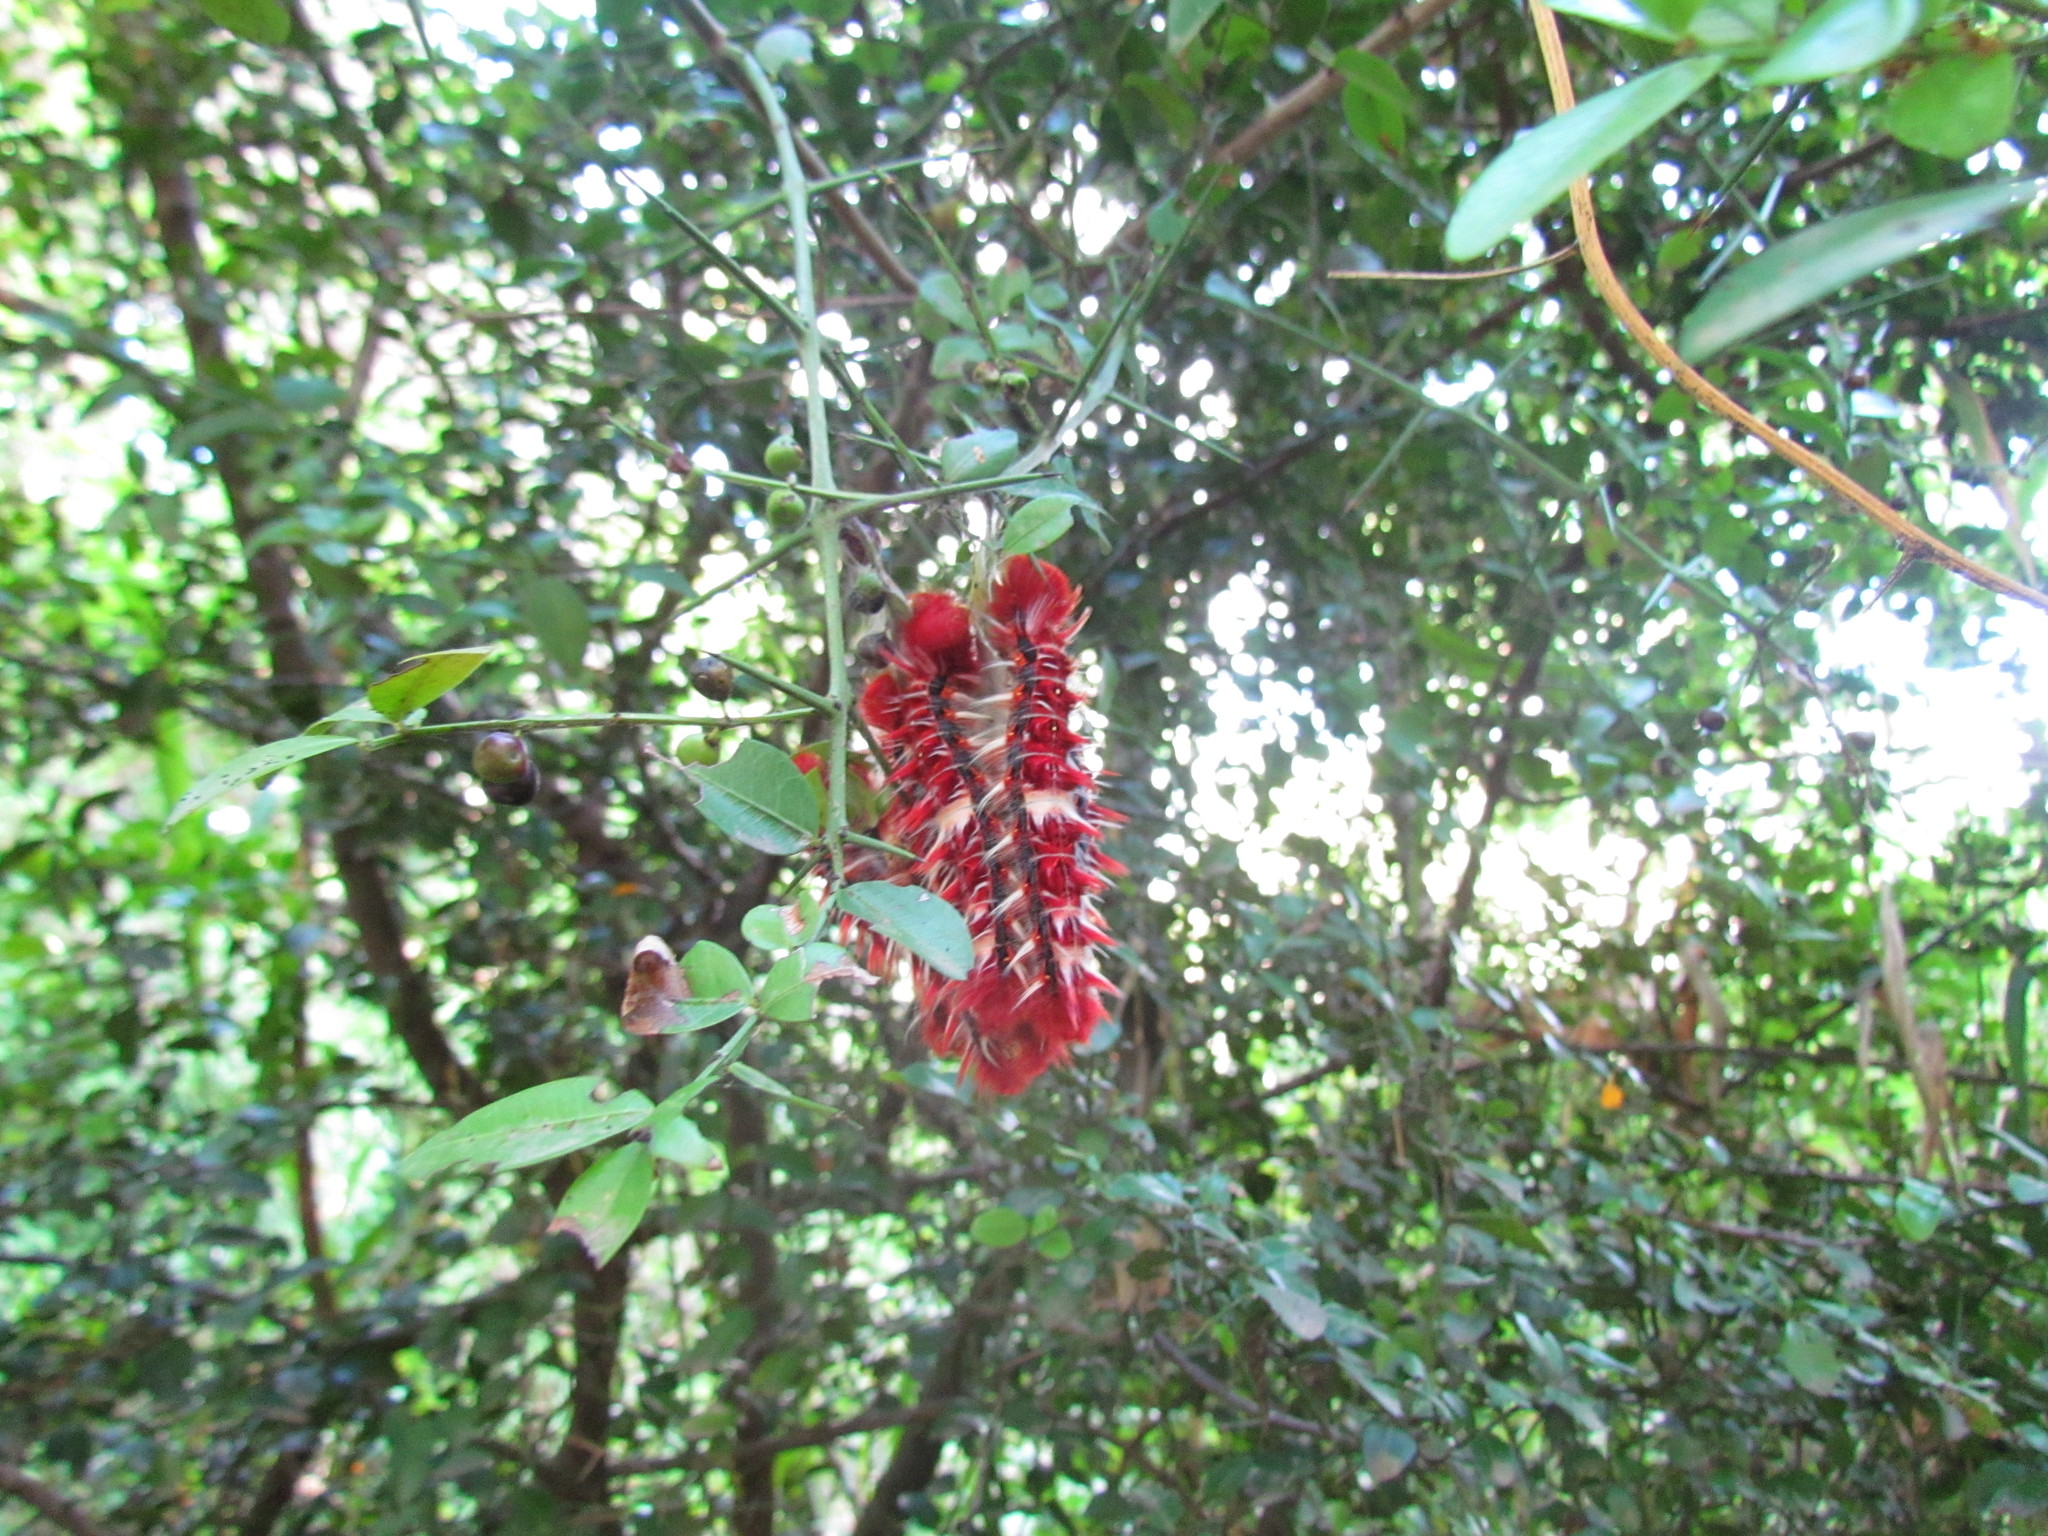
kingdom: Animalia
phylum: Arthropoda
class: Insecta
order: Lepidoptera
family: Nymphalidae
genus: Morpho
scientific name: Morpho epistrophus
